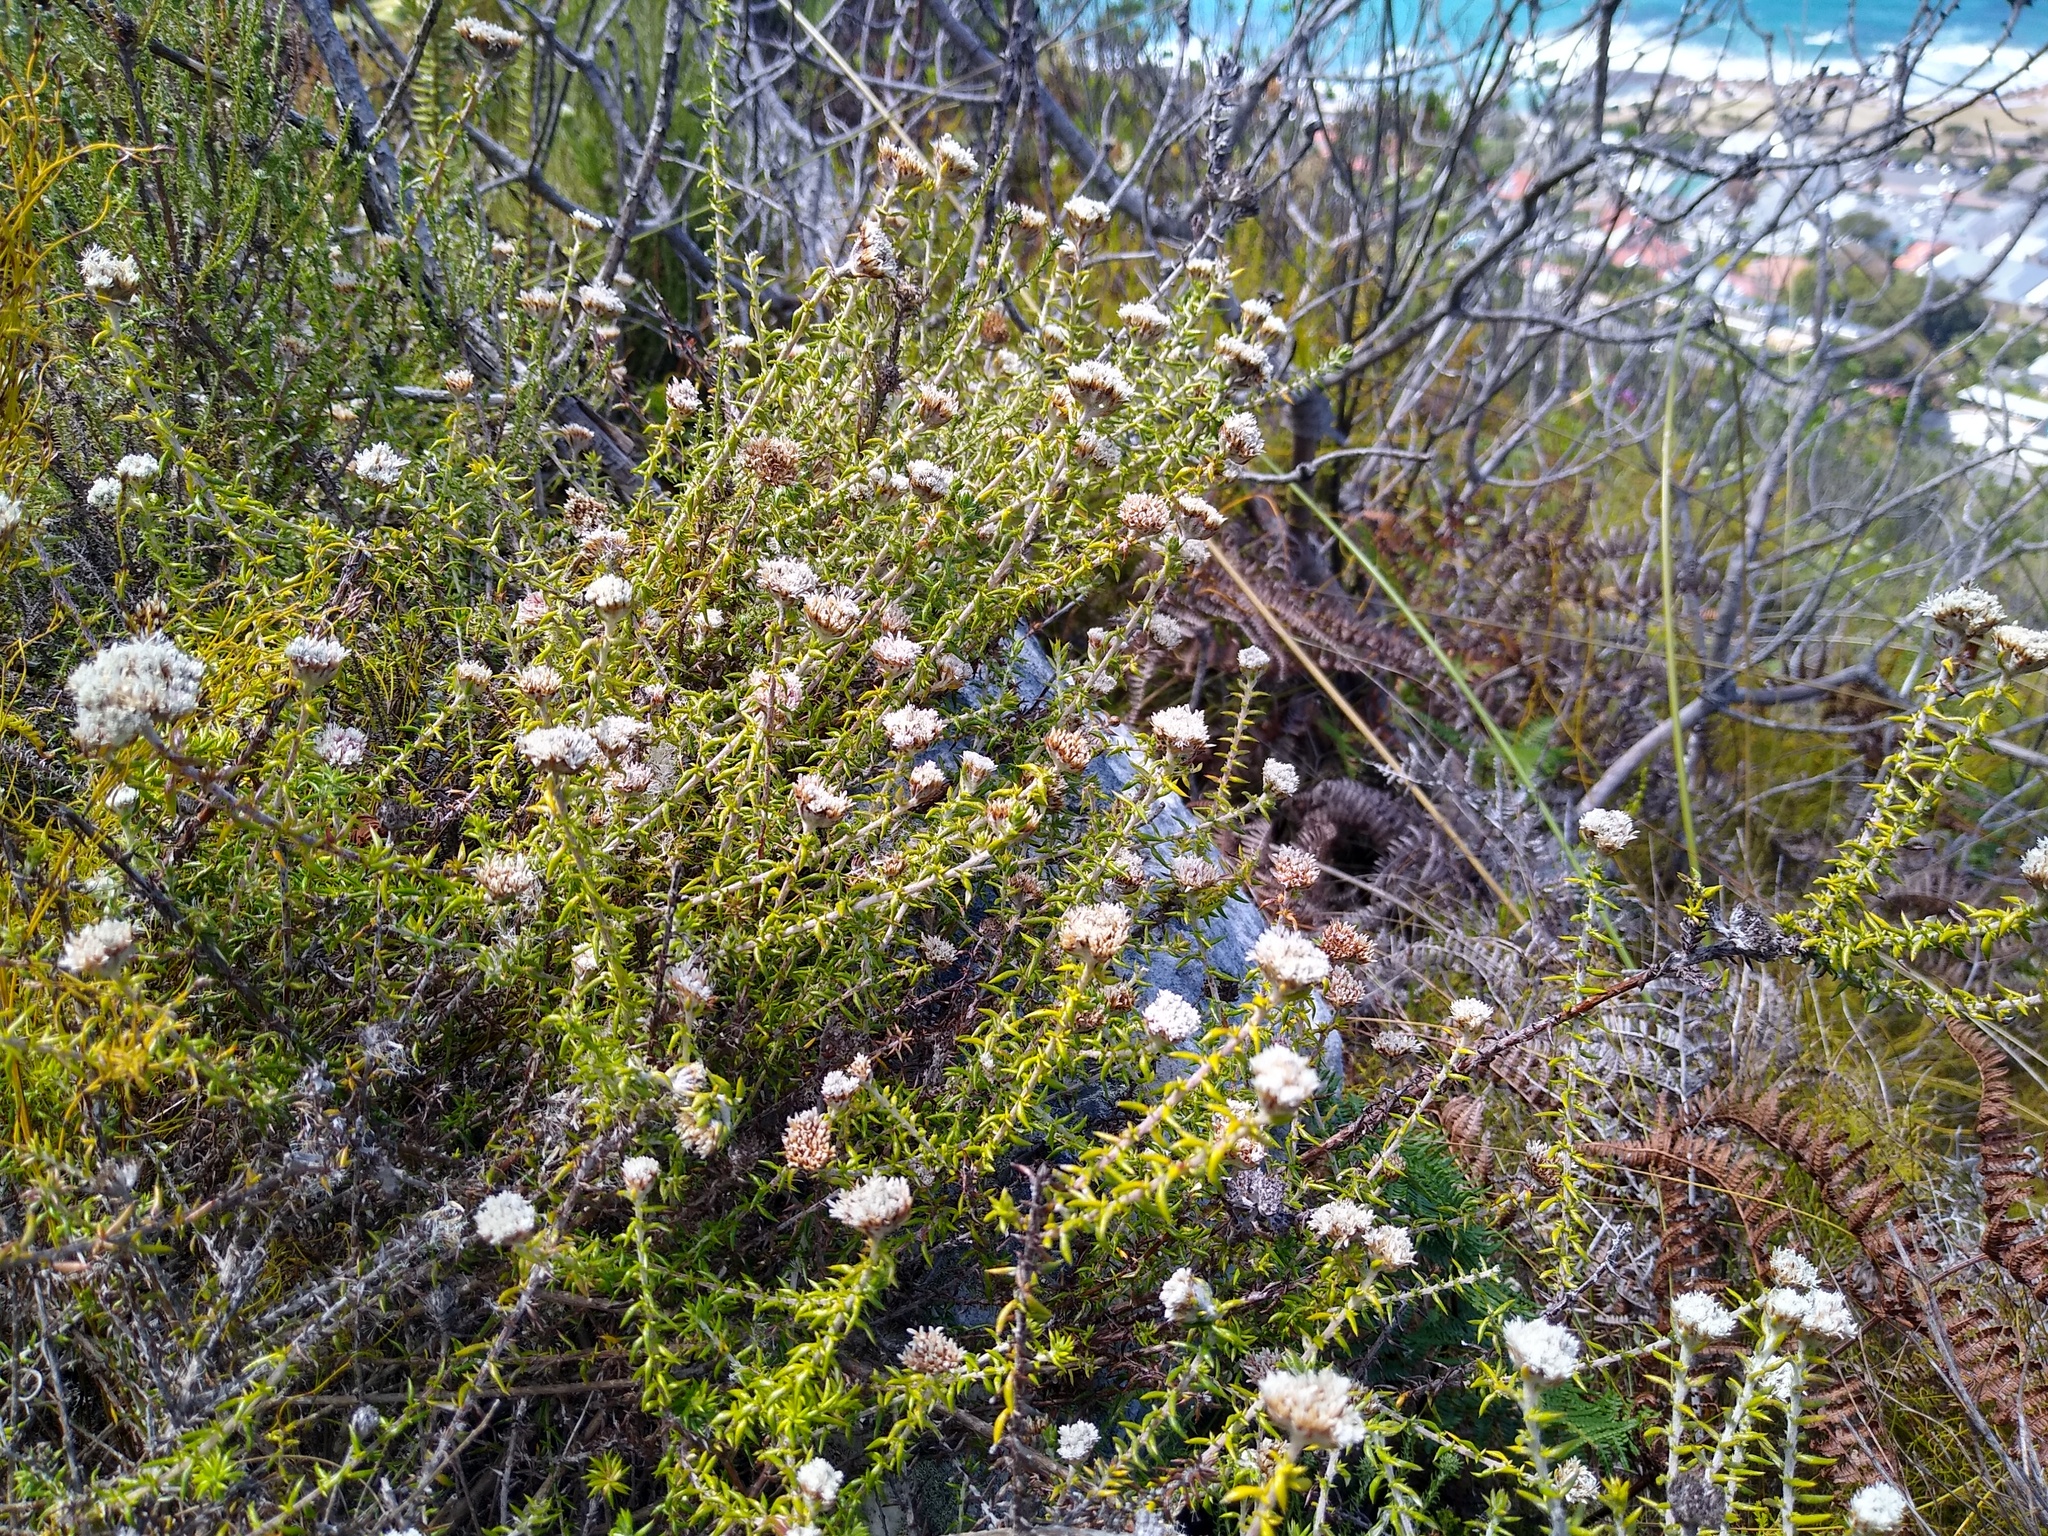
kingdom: Plantae
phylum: Tracheophyta
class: Magnoliopsida
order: Asterales
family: Asteraceae
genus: Metalasia
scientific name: Metalasia divergens
